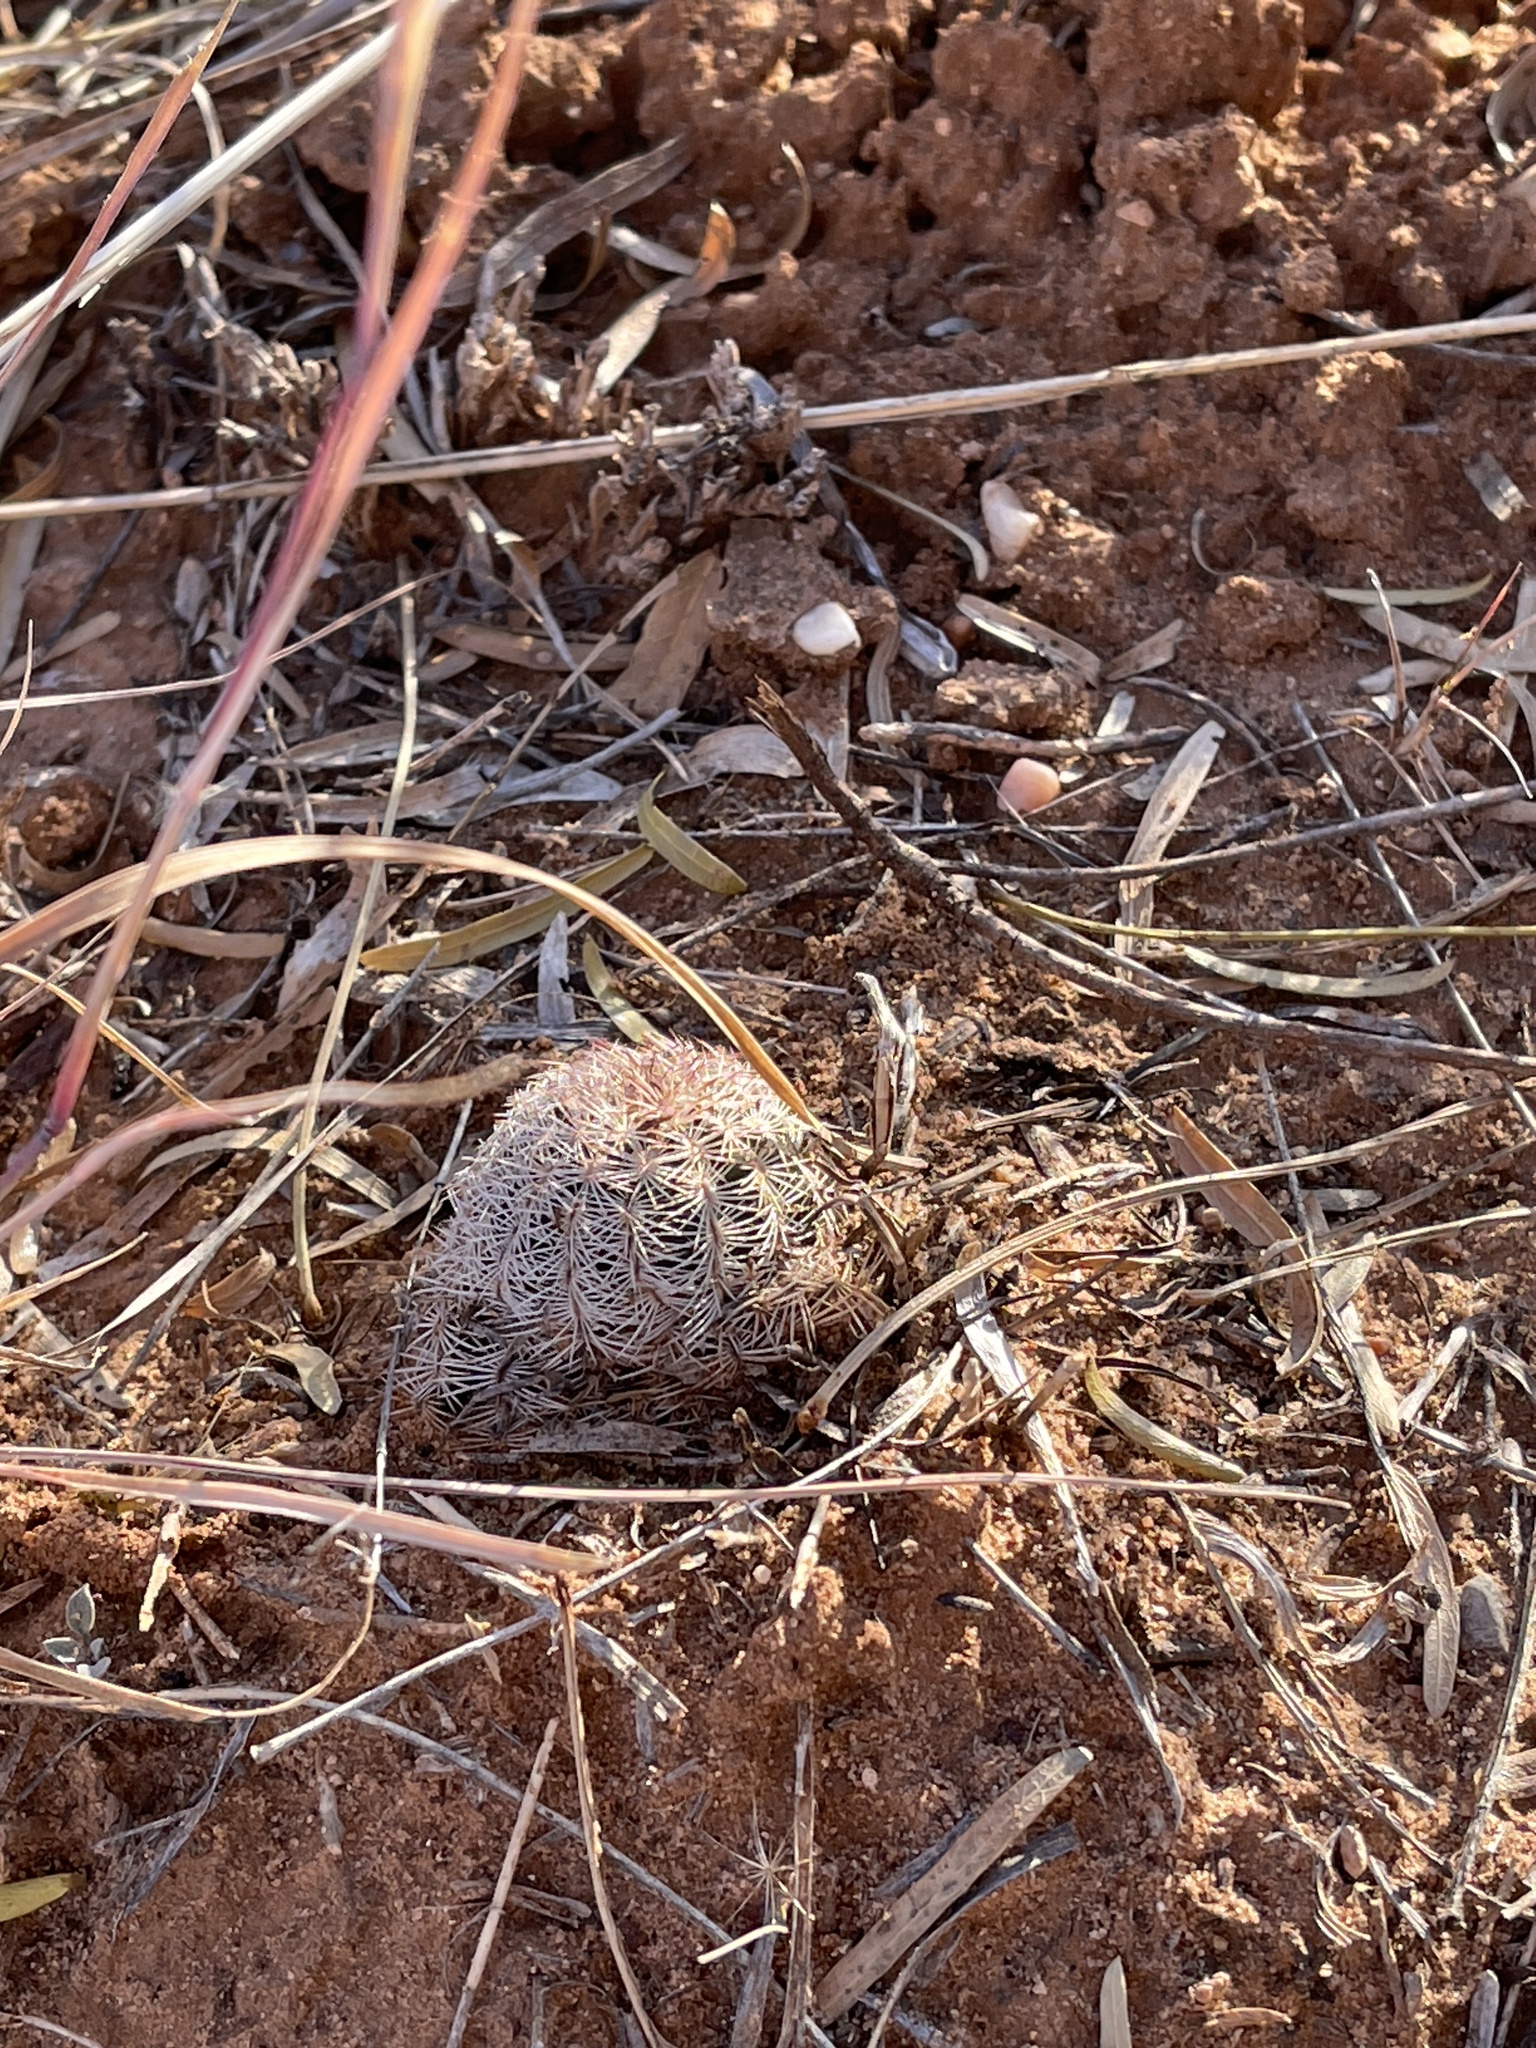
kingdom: Plantae
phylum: Tracheophyta
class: Magnoliopsida
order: Caryophyllales
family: Cactaceae
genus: Echinocereus
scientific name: Echinocereus reichenbachii
